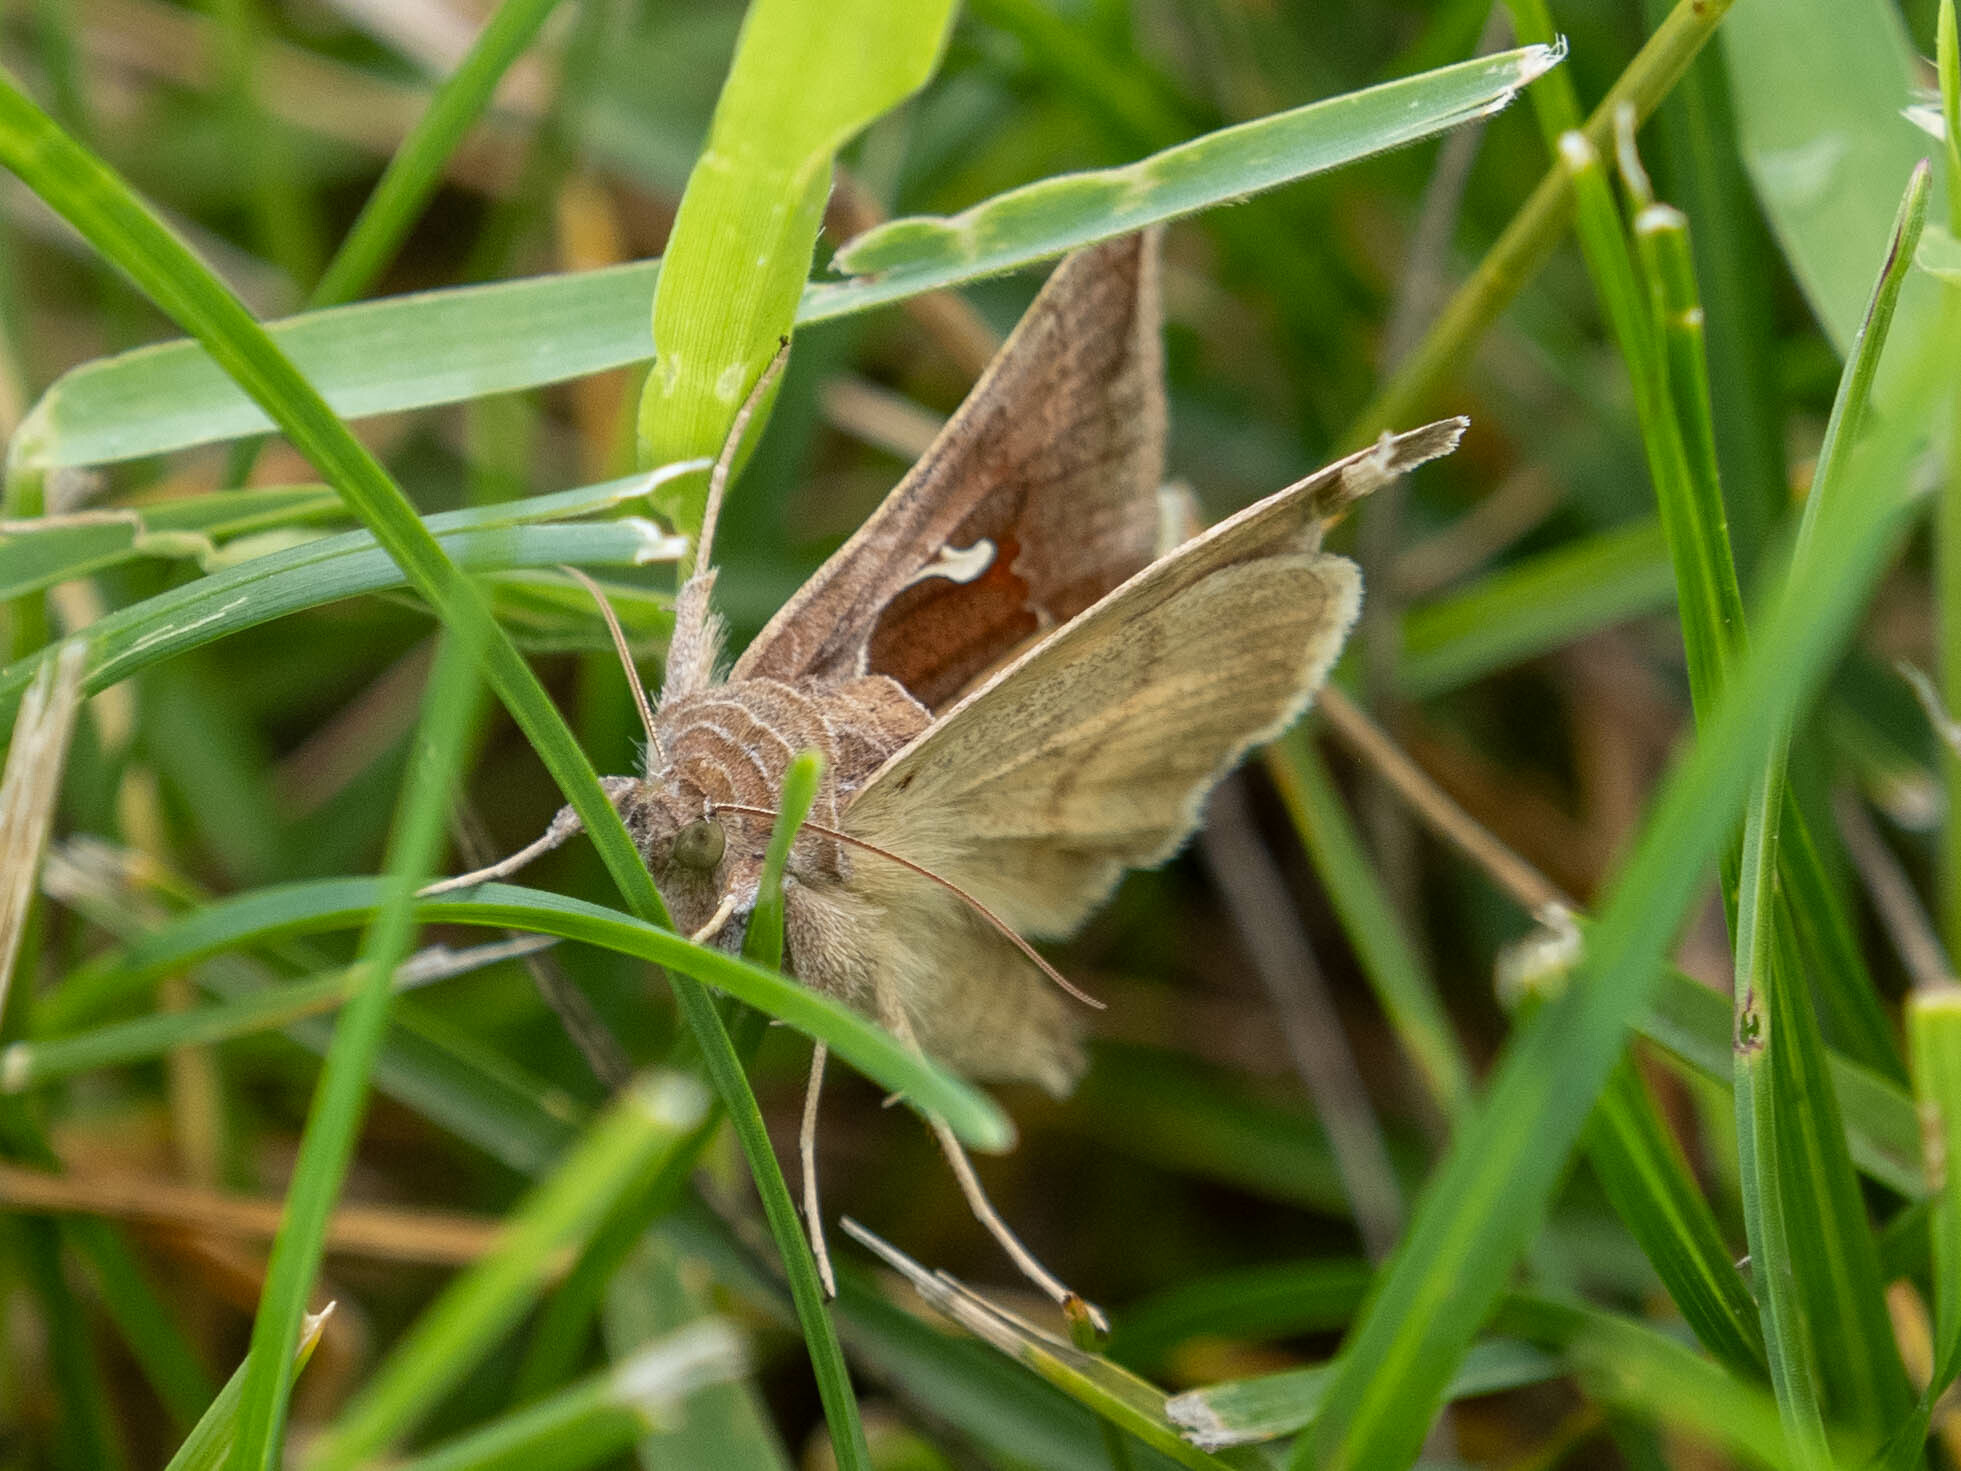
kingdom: Animalia
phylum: Arthropoda
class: Insecta
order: Lepidoptera
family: Noctuidae
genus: Anagrapha
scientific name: Anagrapha falcifera
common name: Celery looper
